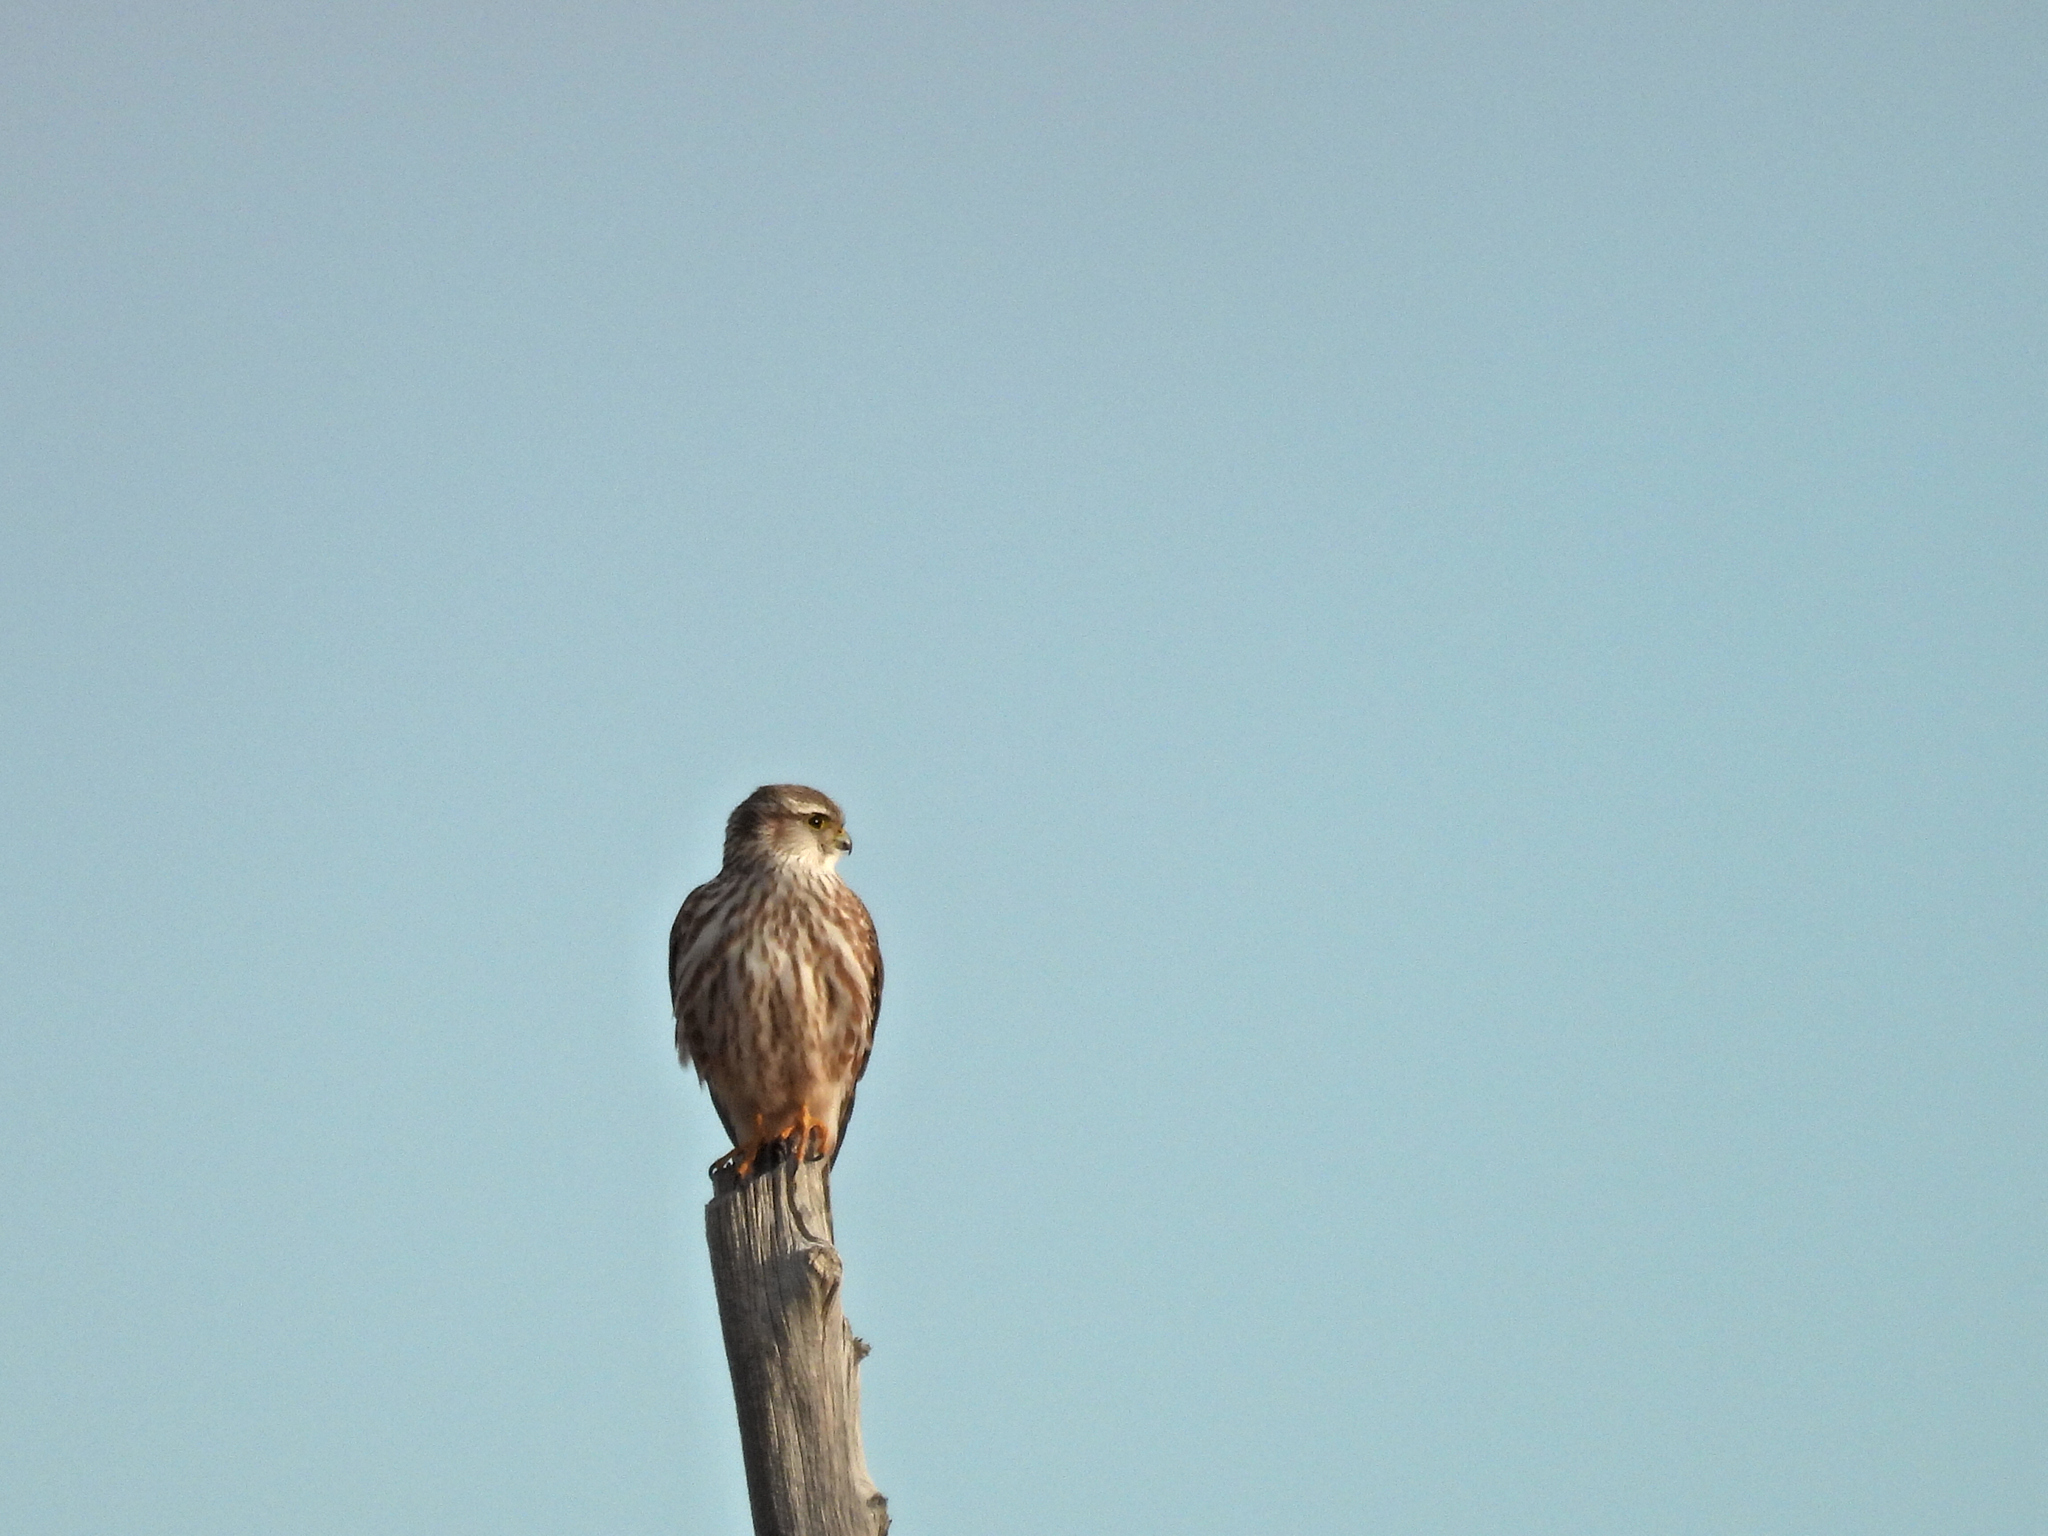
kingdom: Animalia
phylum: Chordata
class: Aves
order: Falconiformes
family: Falconidae
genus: Falco
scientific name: Falco columbarius
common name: Merlin
